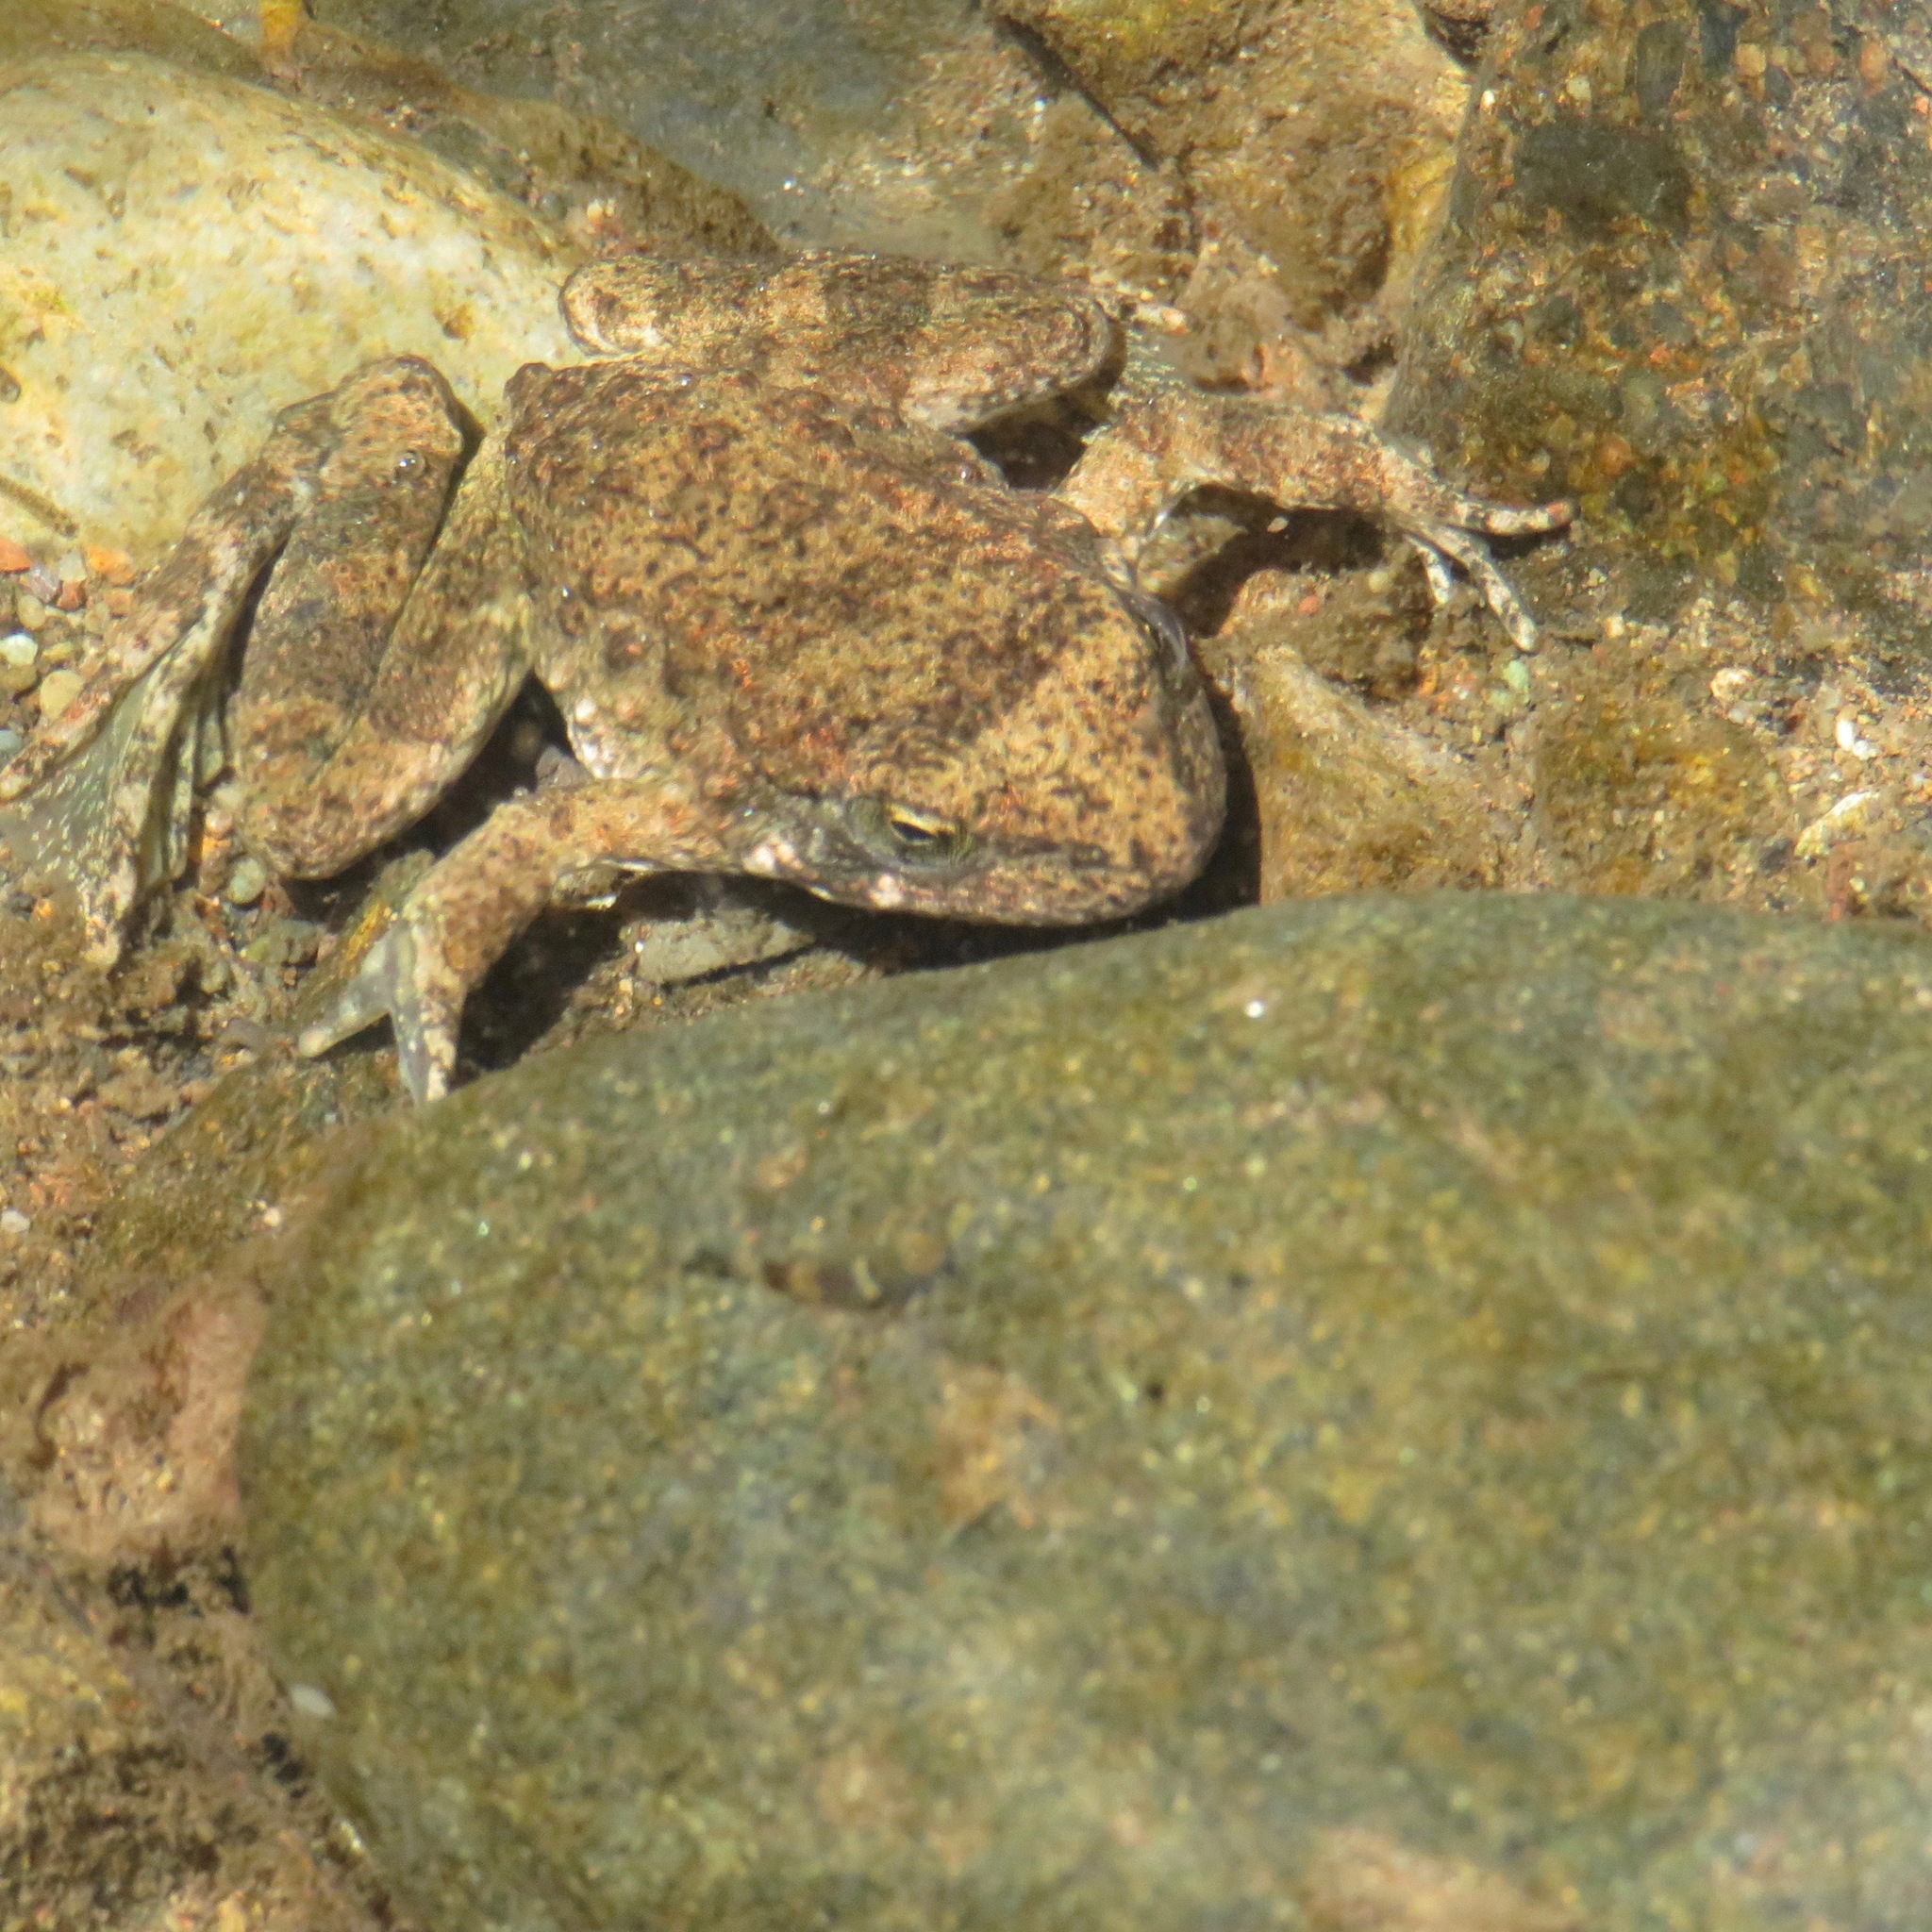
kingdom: Animalia
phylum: Chordata
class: Amphibia
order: Anura
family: Ranidae
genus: Rana
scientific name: Rana boylii
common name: Foothill yellow-legged frog
